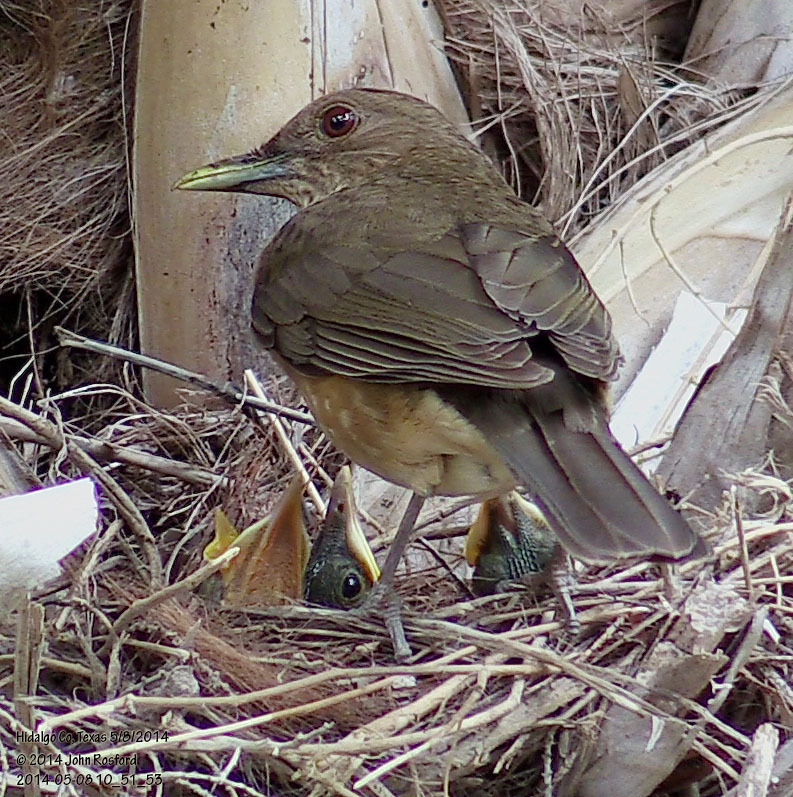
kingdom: Animalia
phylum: Chordata
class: Aves
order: Passeriformes
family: Turdidae
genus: Turdus
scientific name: Turdus grayi
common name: Clay-colored thrush
